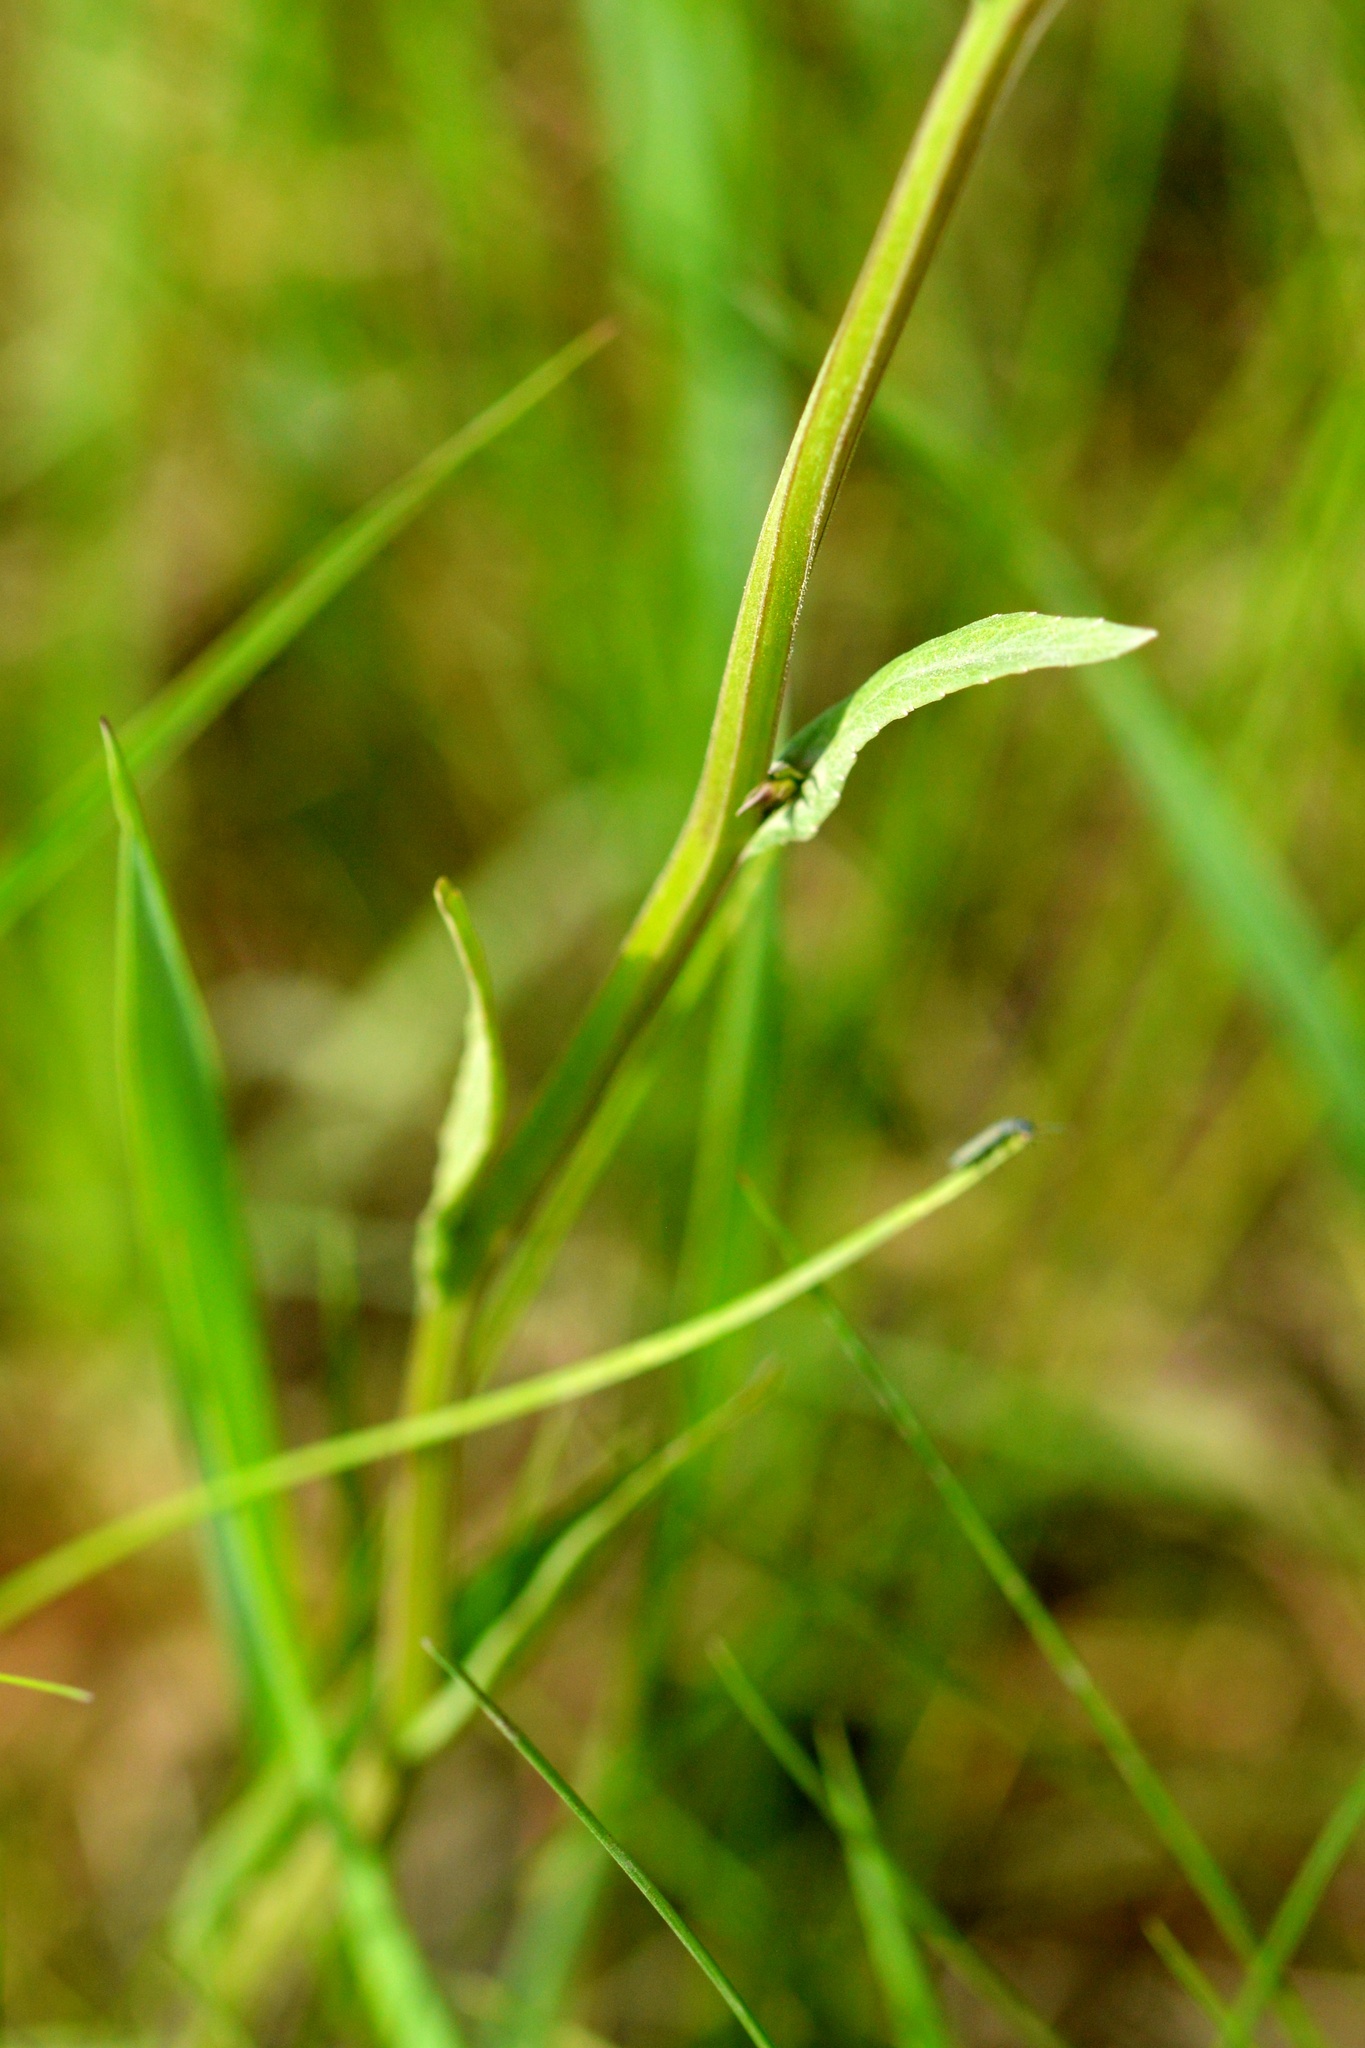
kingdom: Plantae
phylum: Tracheophyta
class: Magnoliopsida
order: Asterales
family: Campanulaceae
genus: Campanula
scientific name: Campanula patula
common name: Spreading bellflower
